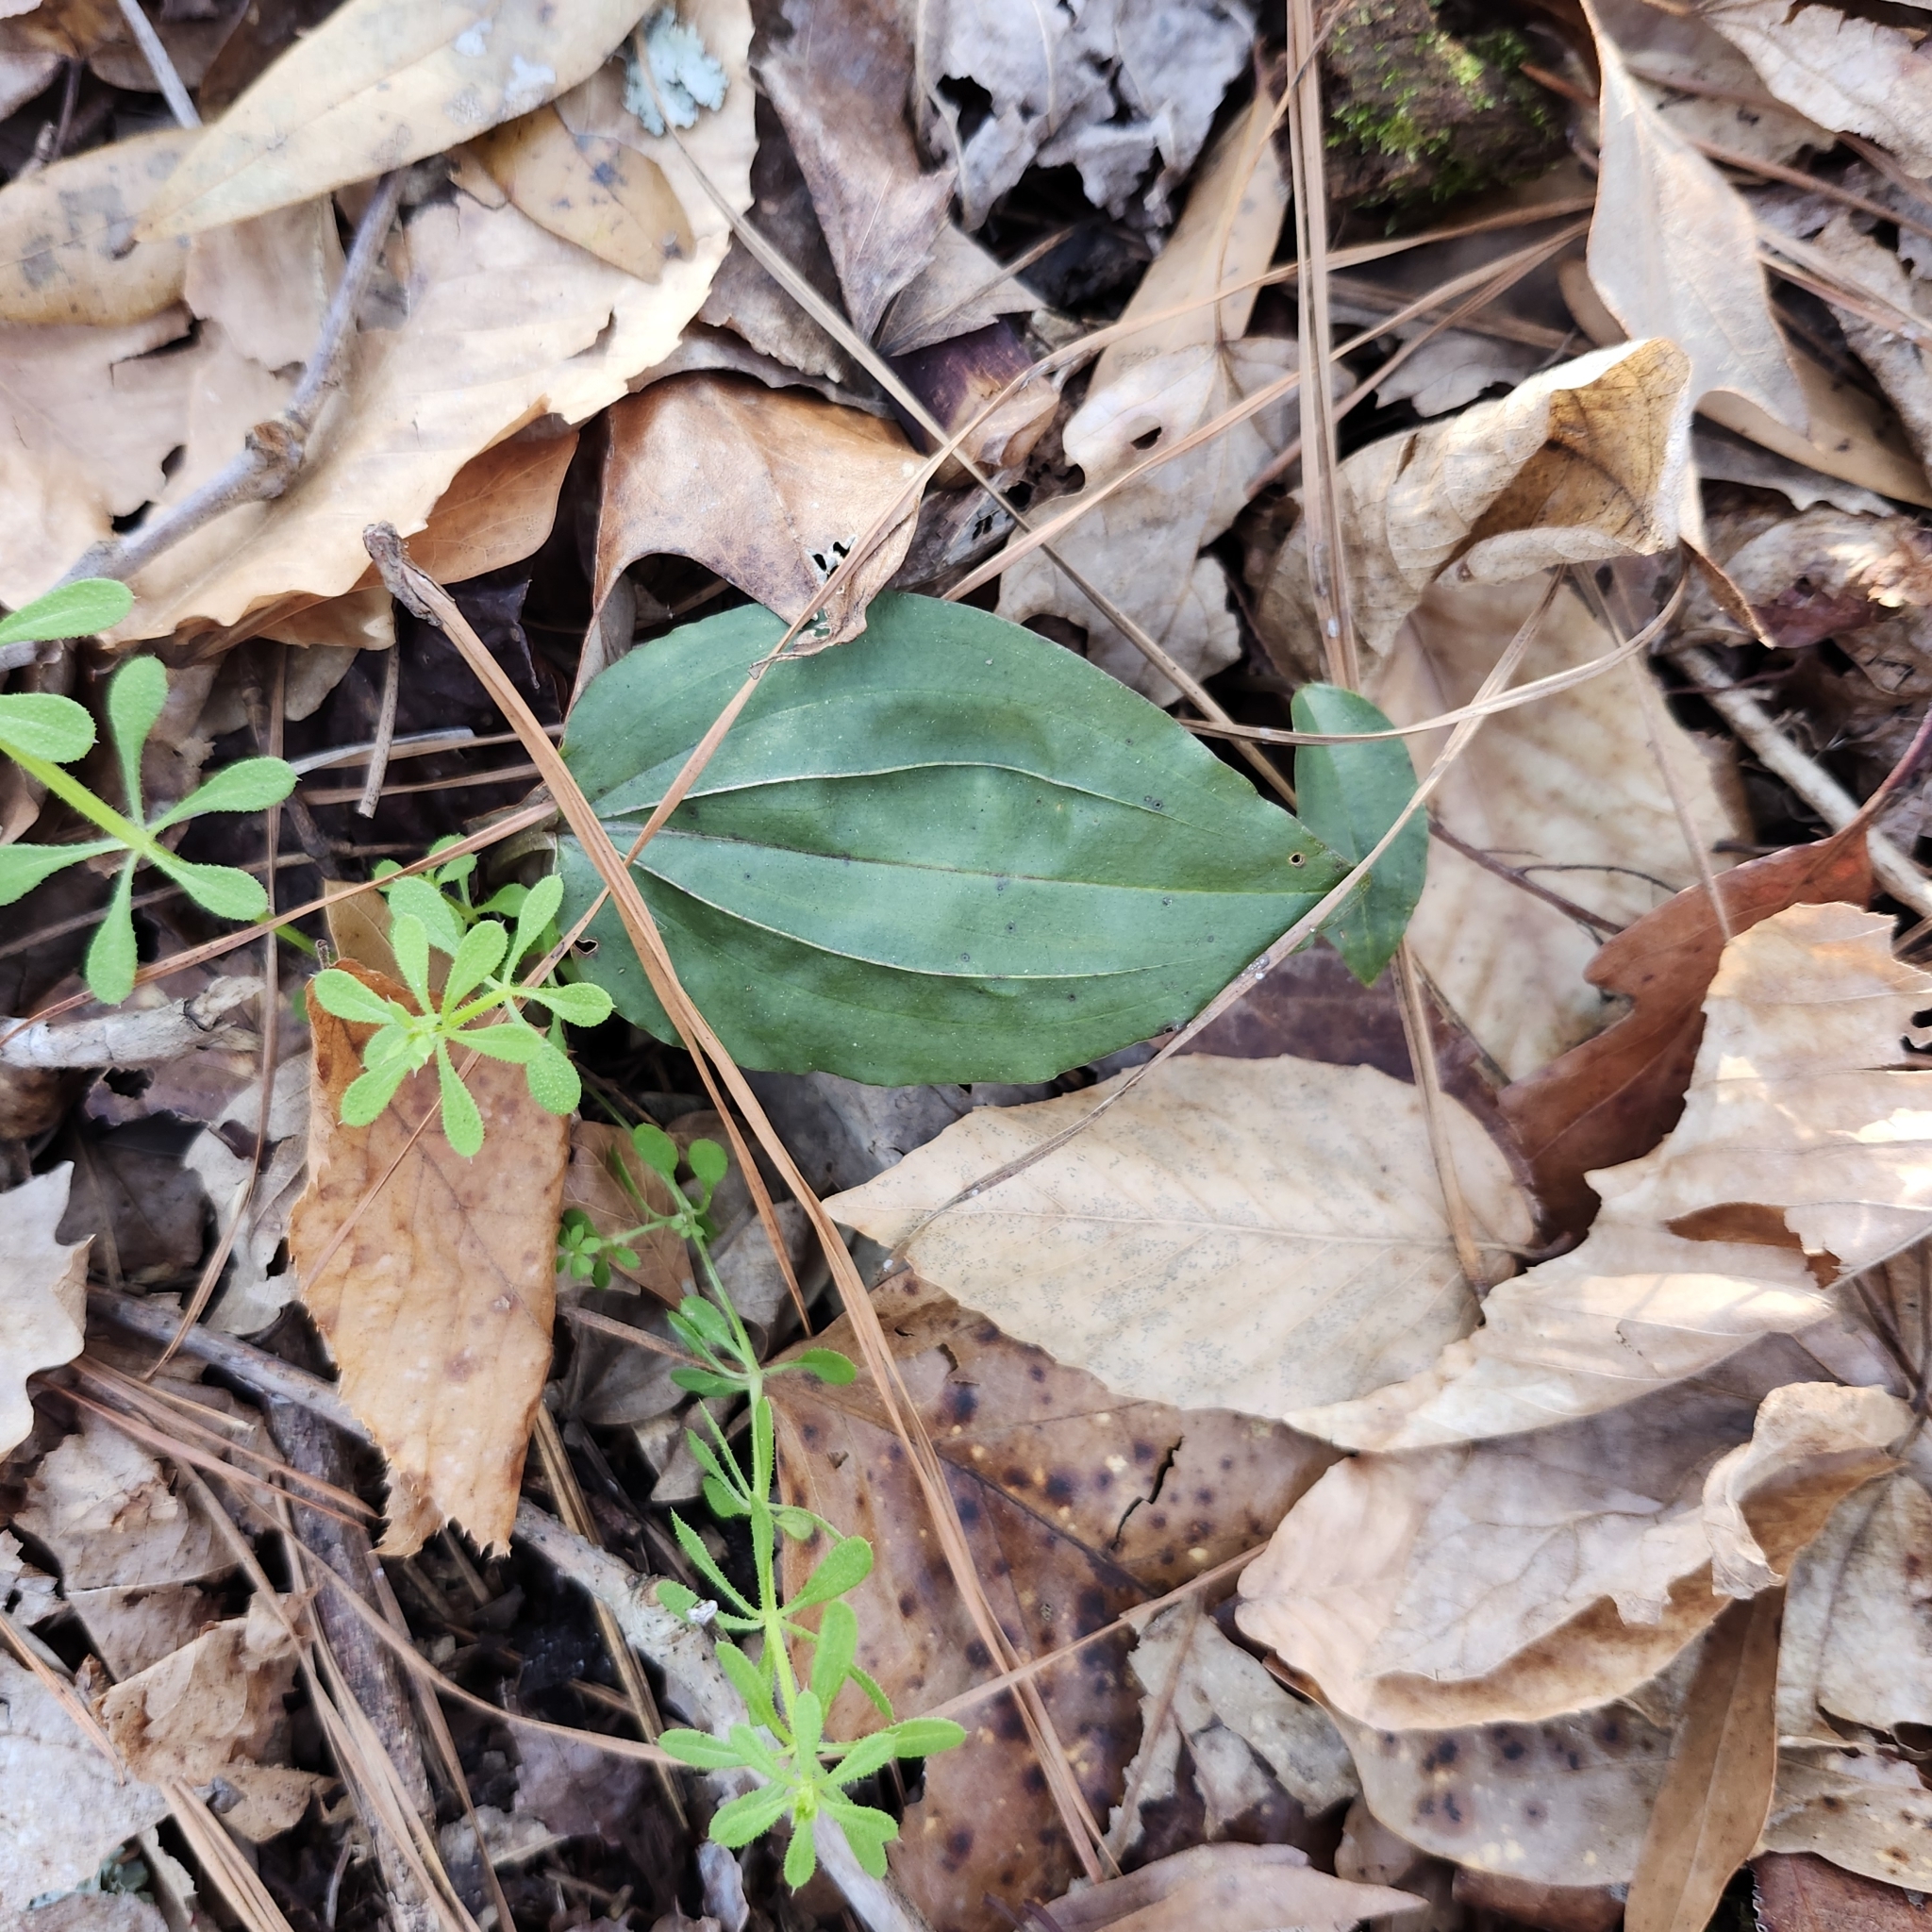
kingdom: Plantae
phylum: Tracheophyta
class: Liliopsida
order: Asparagales
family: Orchidaceae
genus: Tipularia
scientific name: Tipularia discolor
